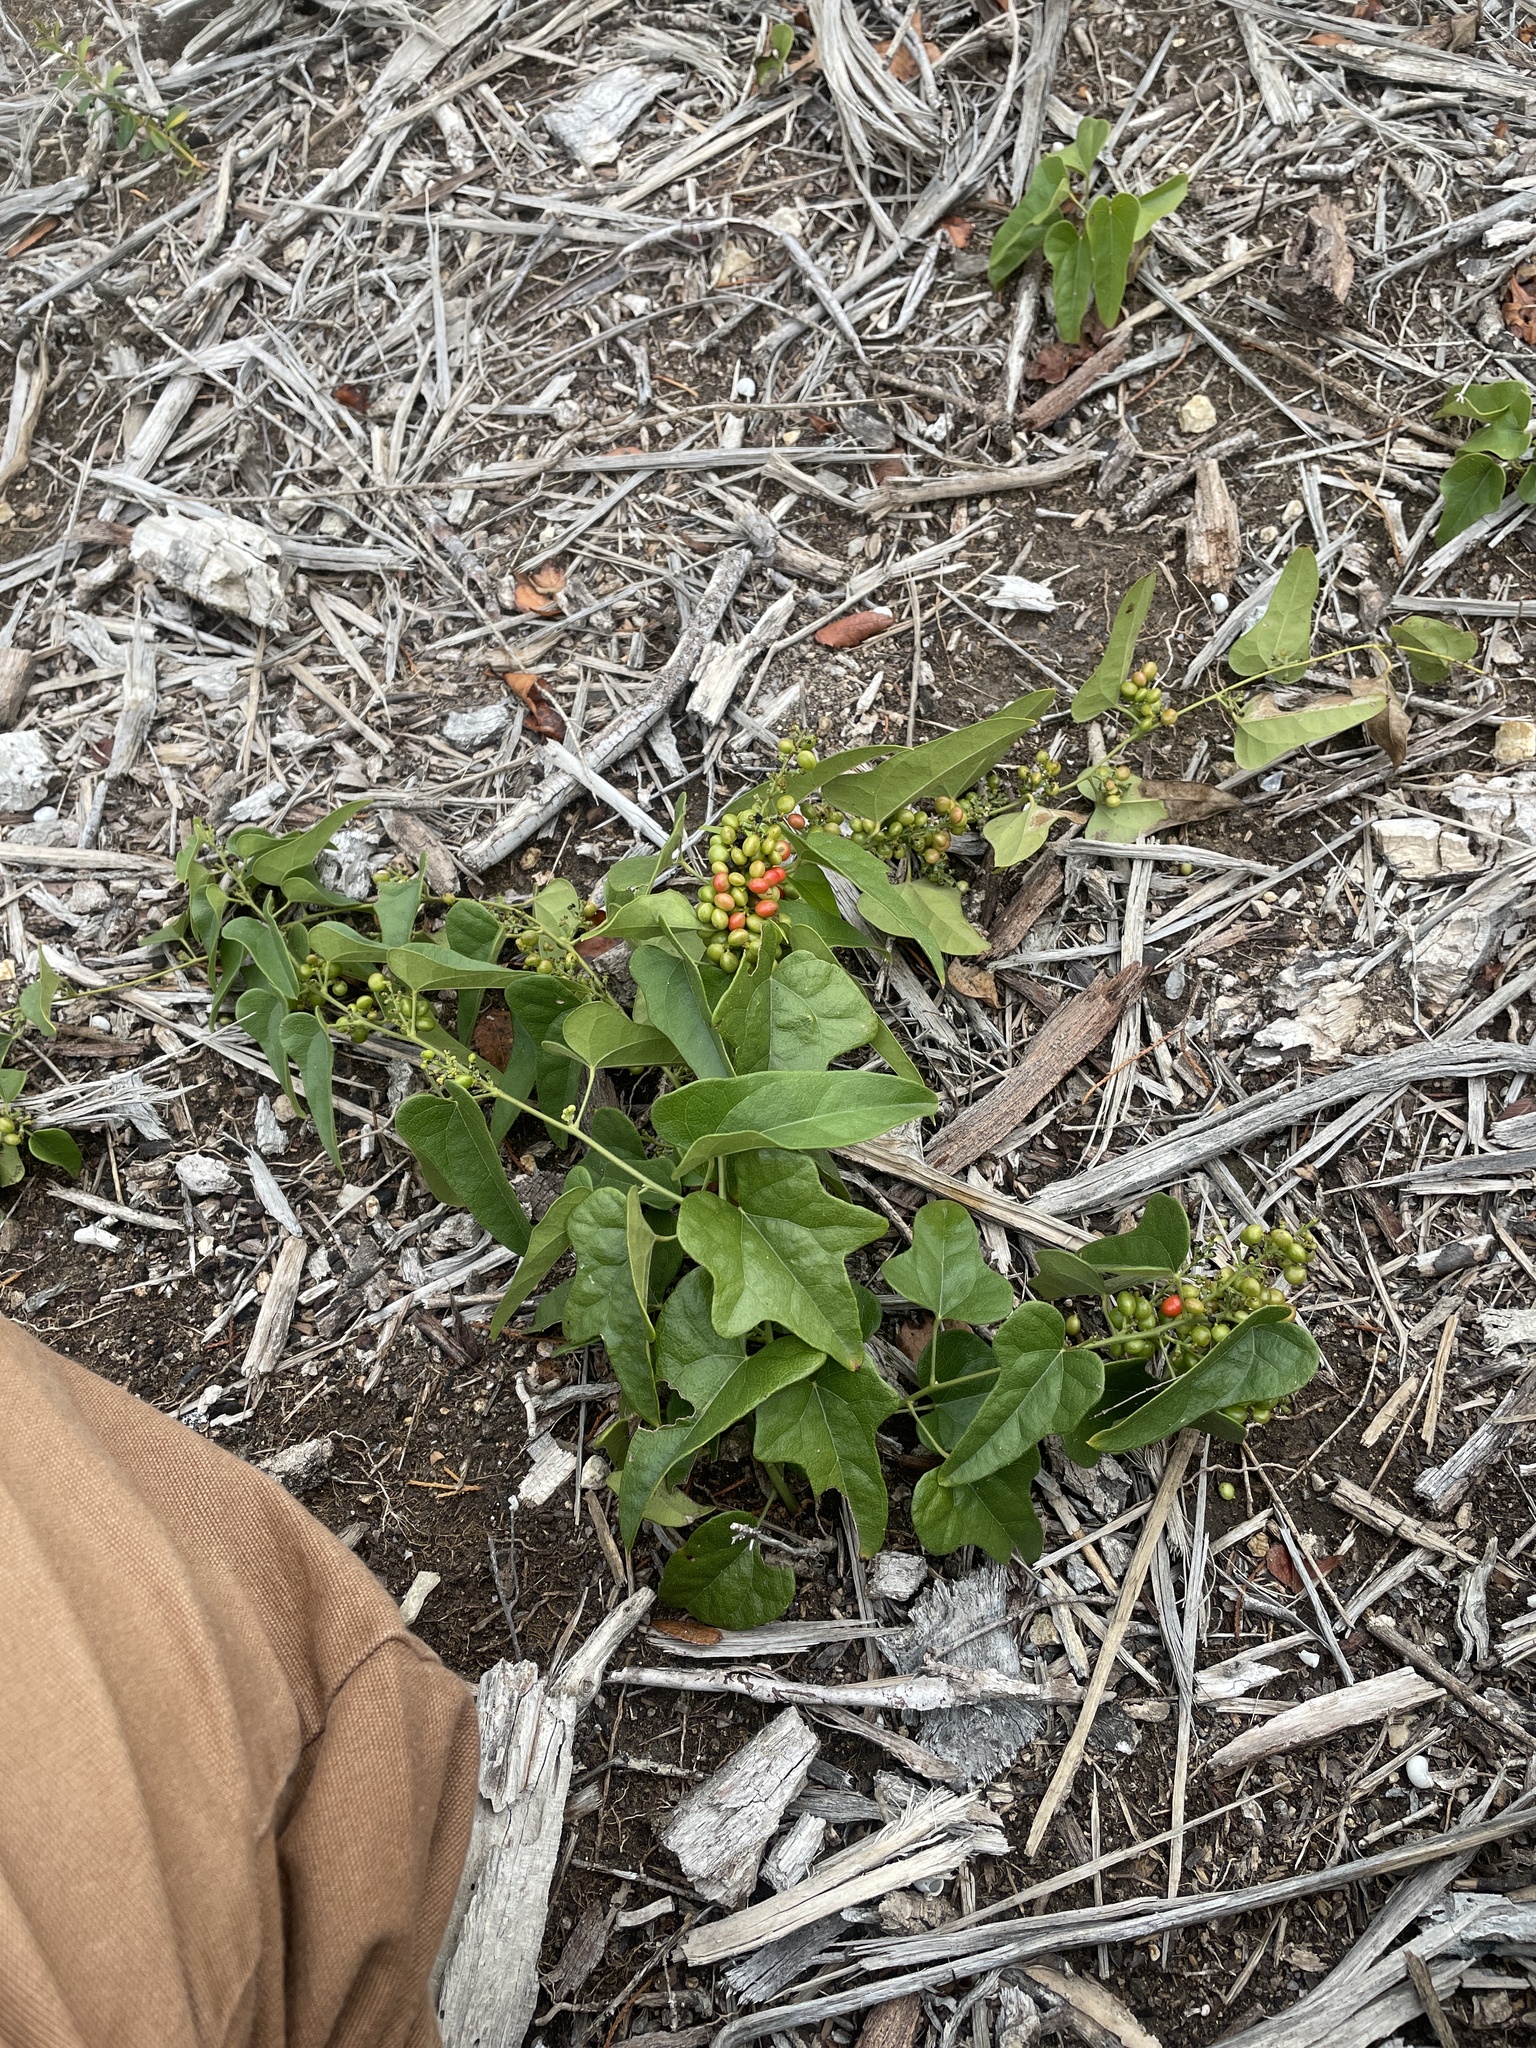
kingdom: Plantae
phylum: Tracheophyta
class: Magnoliopsida
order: Ranunculales
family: Menispermaceae
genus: Cocculus
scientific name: Cocculus carolinus
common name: Carolina moonseed
